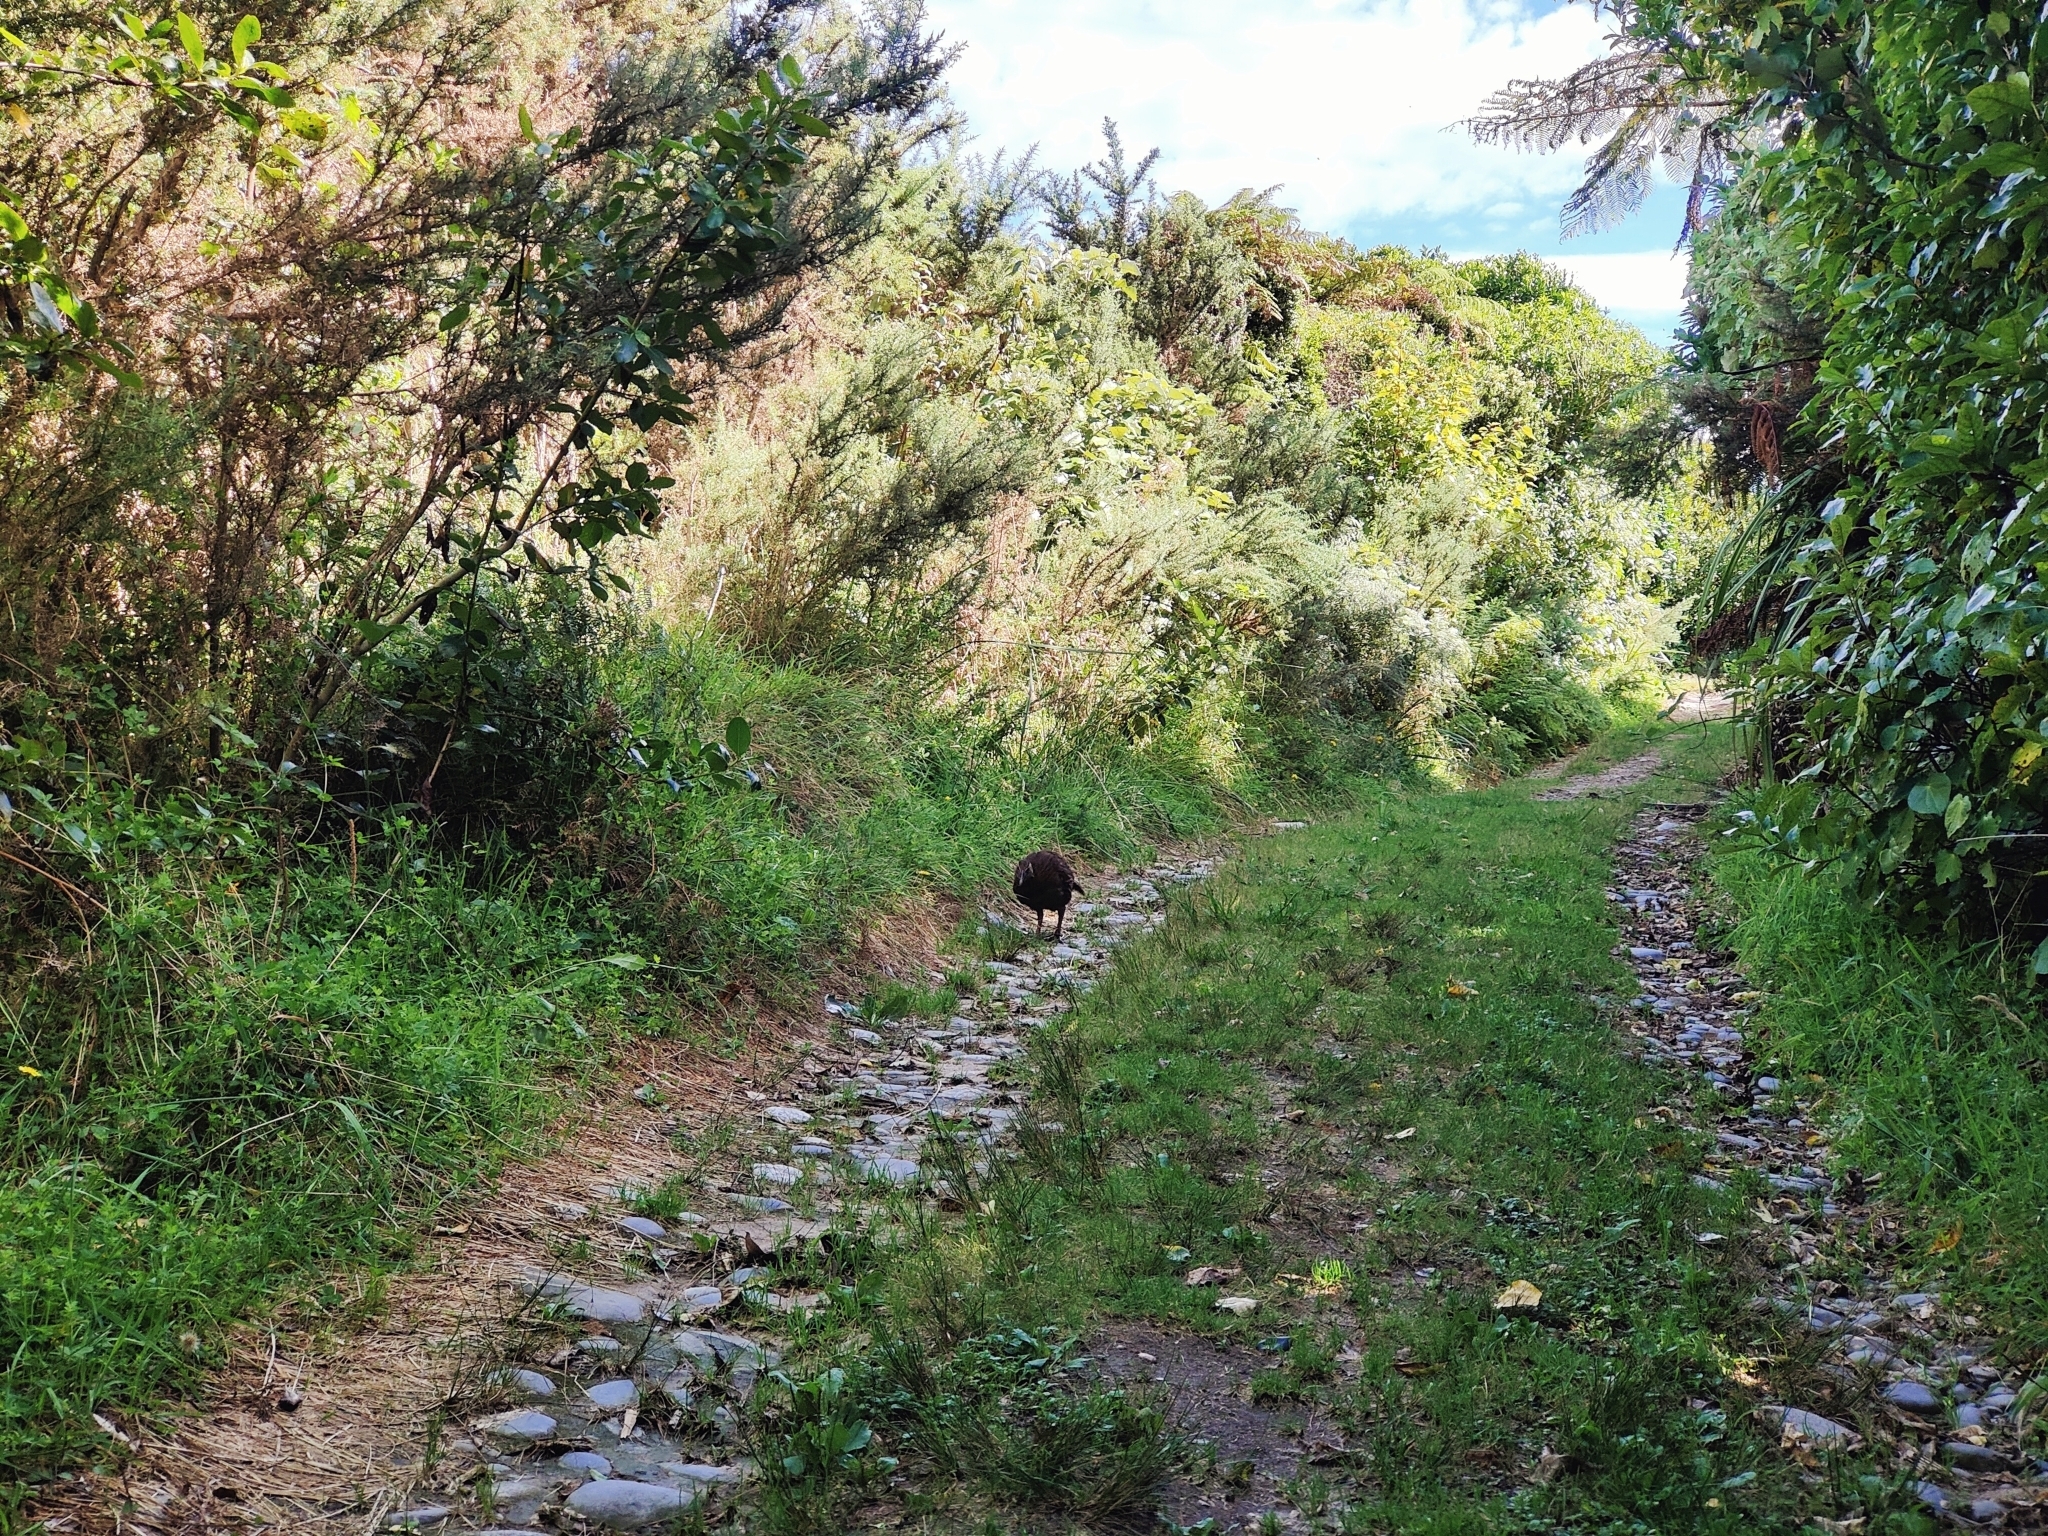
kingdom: Animalia
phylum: Chordata
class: Aves
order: Gruiformes
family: Rallidae
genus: Gallirallus
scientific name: Gallirallus australis
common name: Weka
